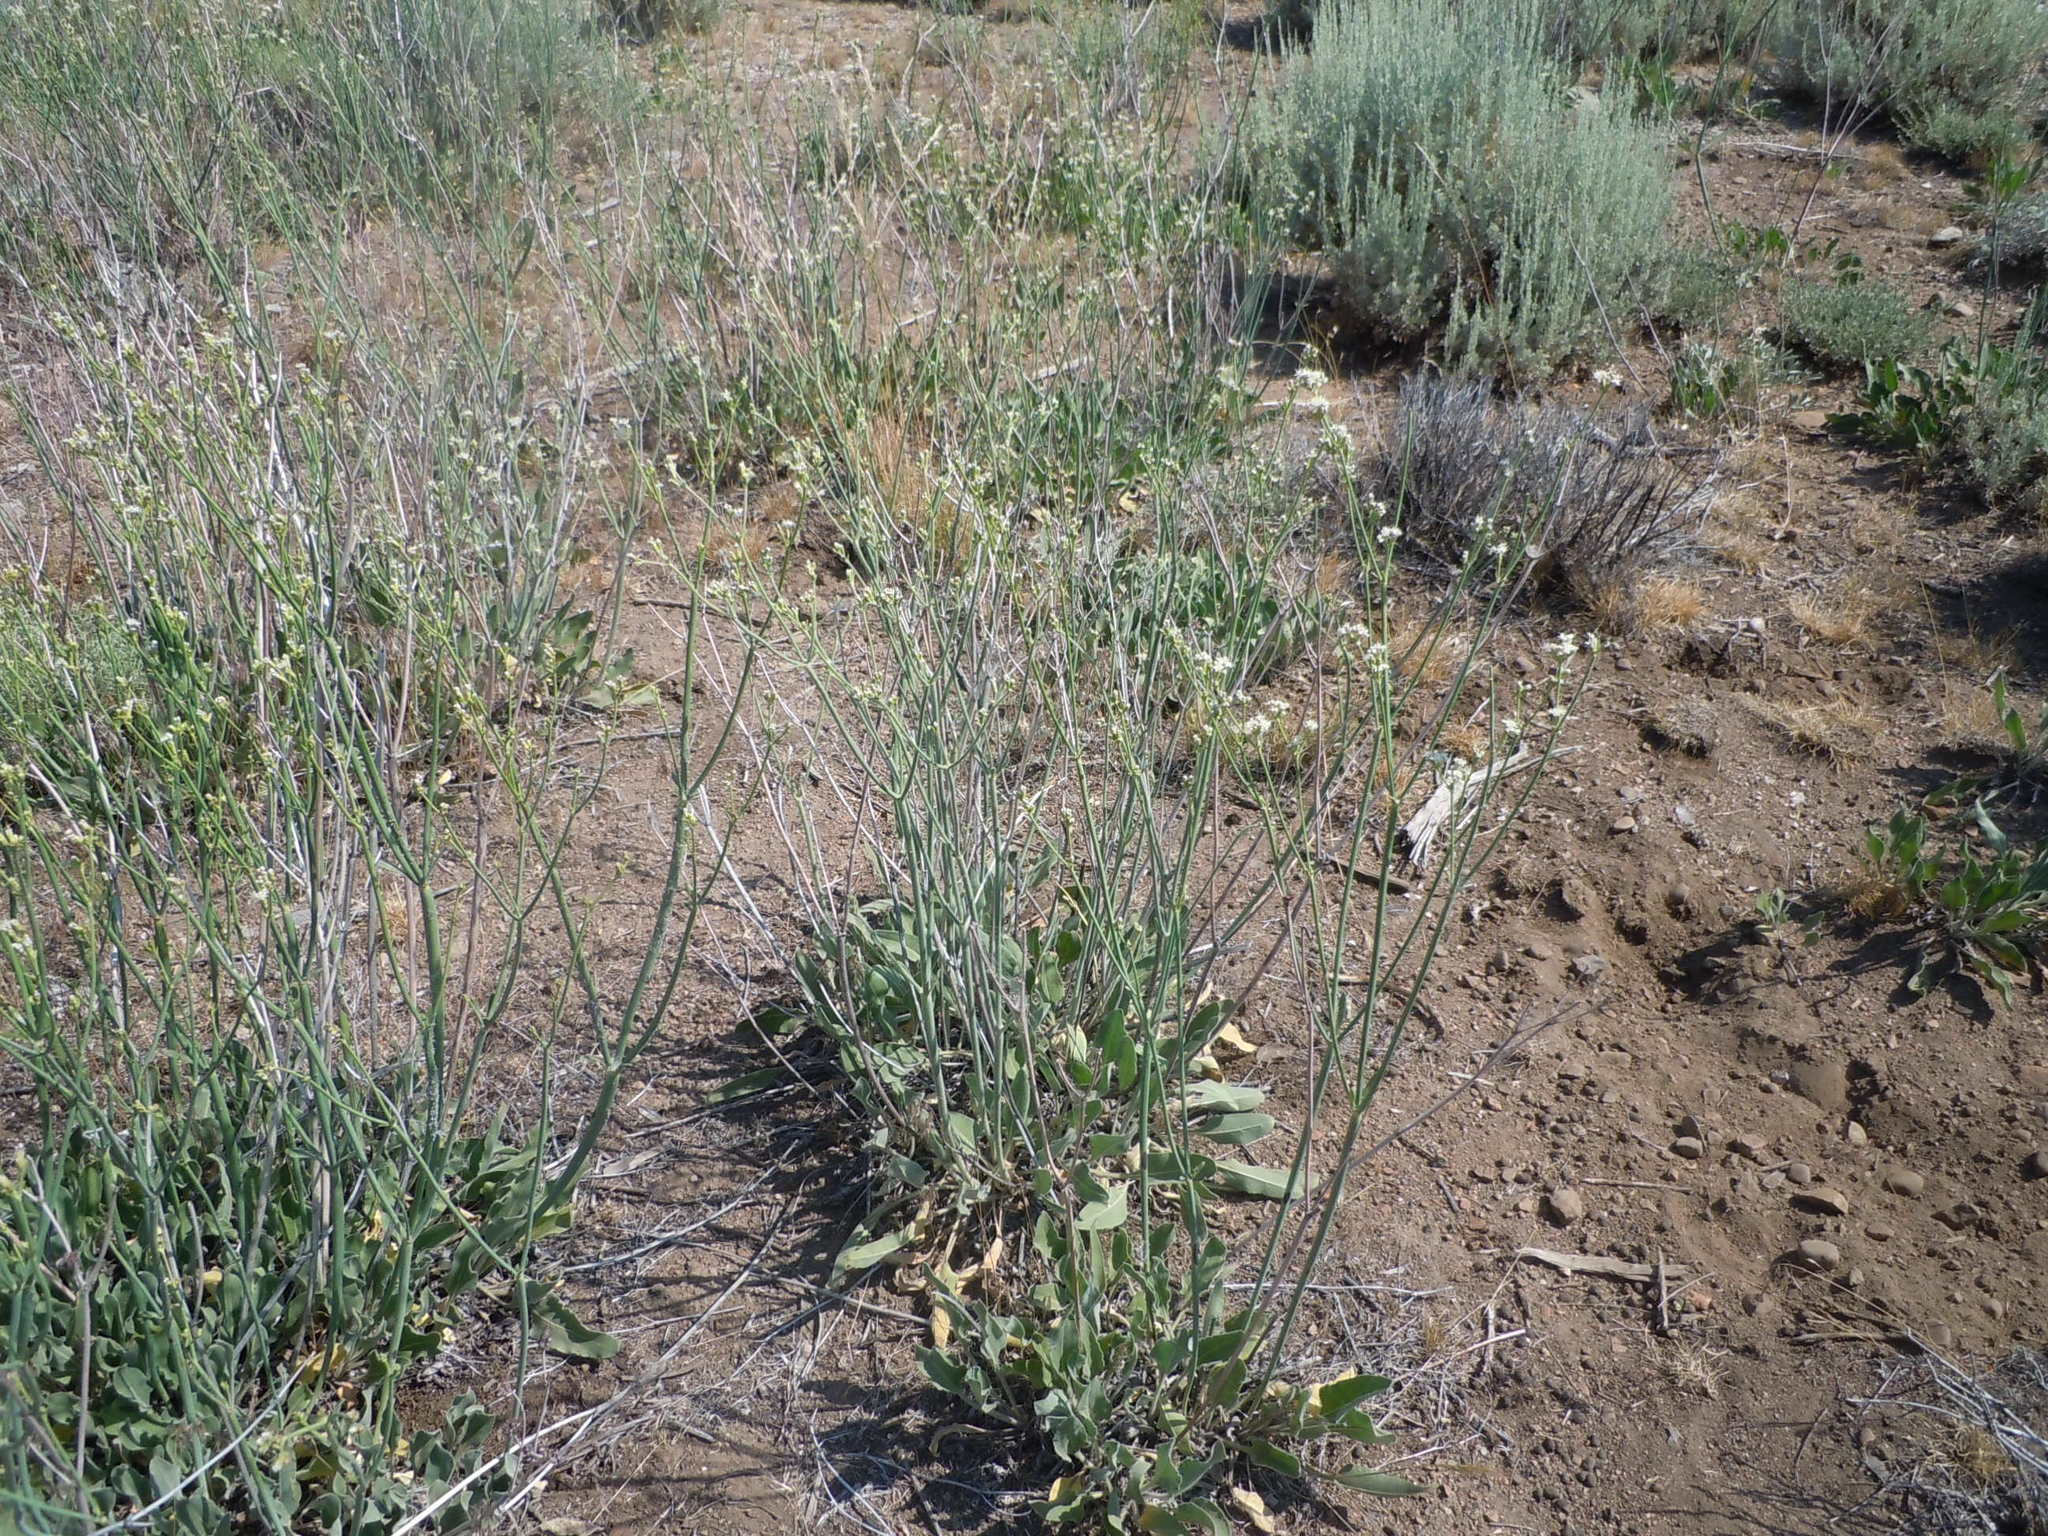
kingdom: Plantae
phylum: Tracheophyta
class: Magnoliopsida
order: Caryophyllales
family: Polygonaceae
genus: Eriogonum
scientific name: Eriogonum elatum
